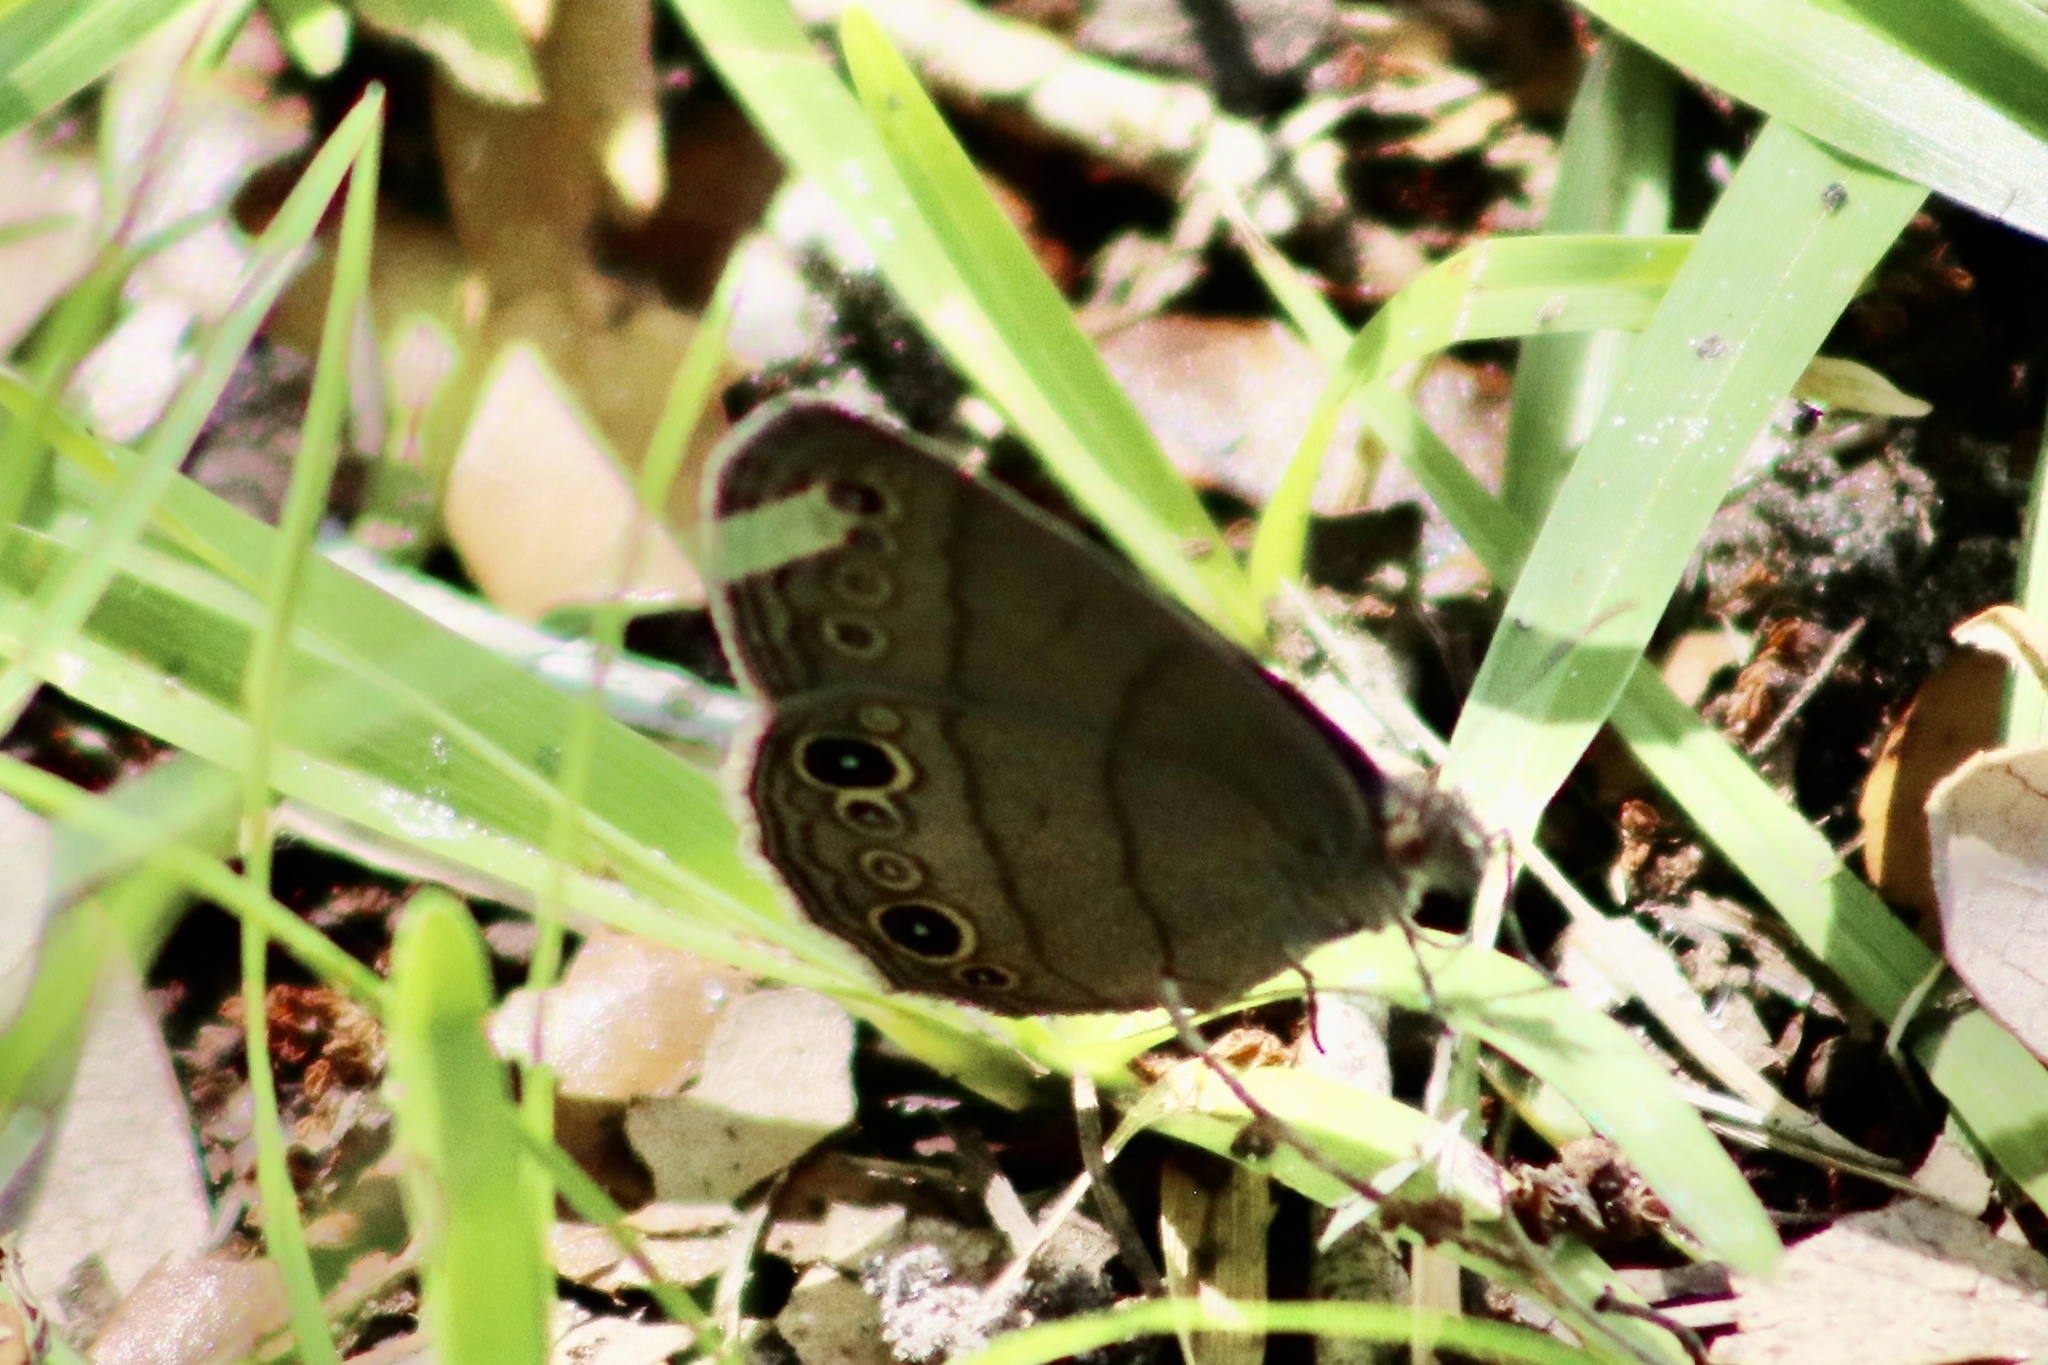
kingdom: Animalia
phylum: Arthropoda
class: Insecta
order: Lepidoptera
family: Nymphalidae
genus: Hermeuptychia
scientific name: Hermeuptychia hermes
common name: Hermes satyr
